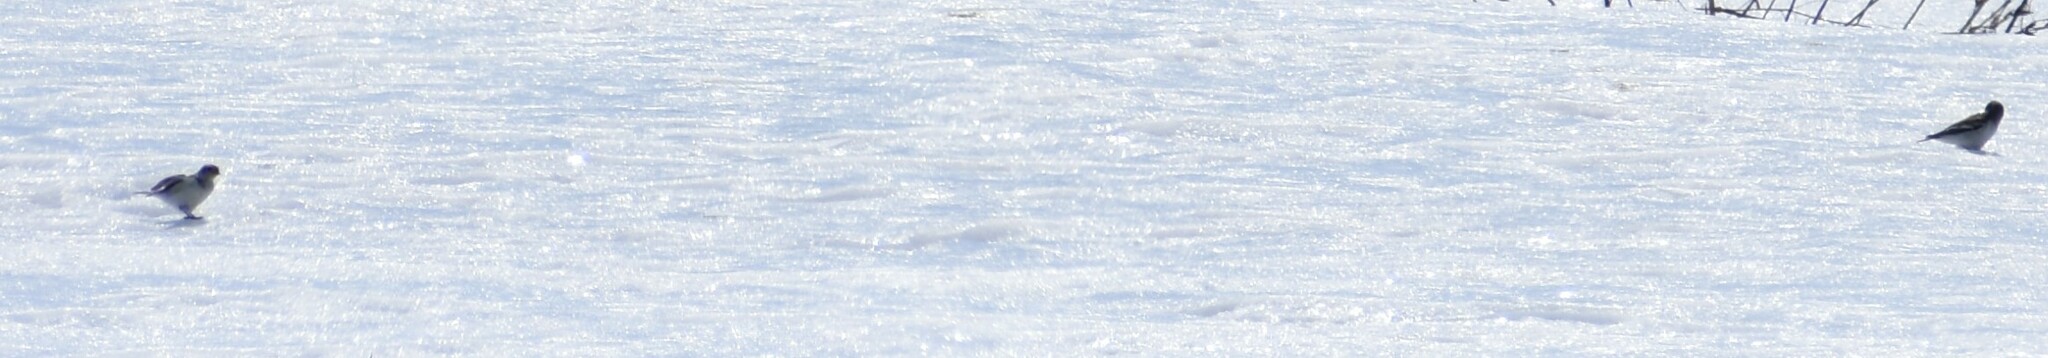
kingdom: Animalia
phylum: Chordata
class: Aves
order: Passeriformes
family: Calcariidae
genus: Plectrophenax
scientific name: Plectrophenax nivalis
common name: Snow bunting
